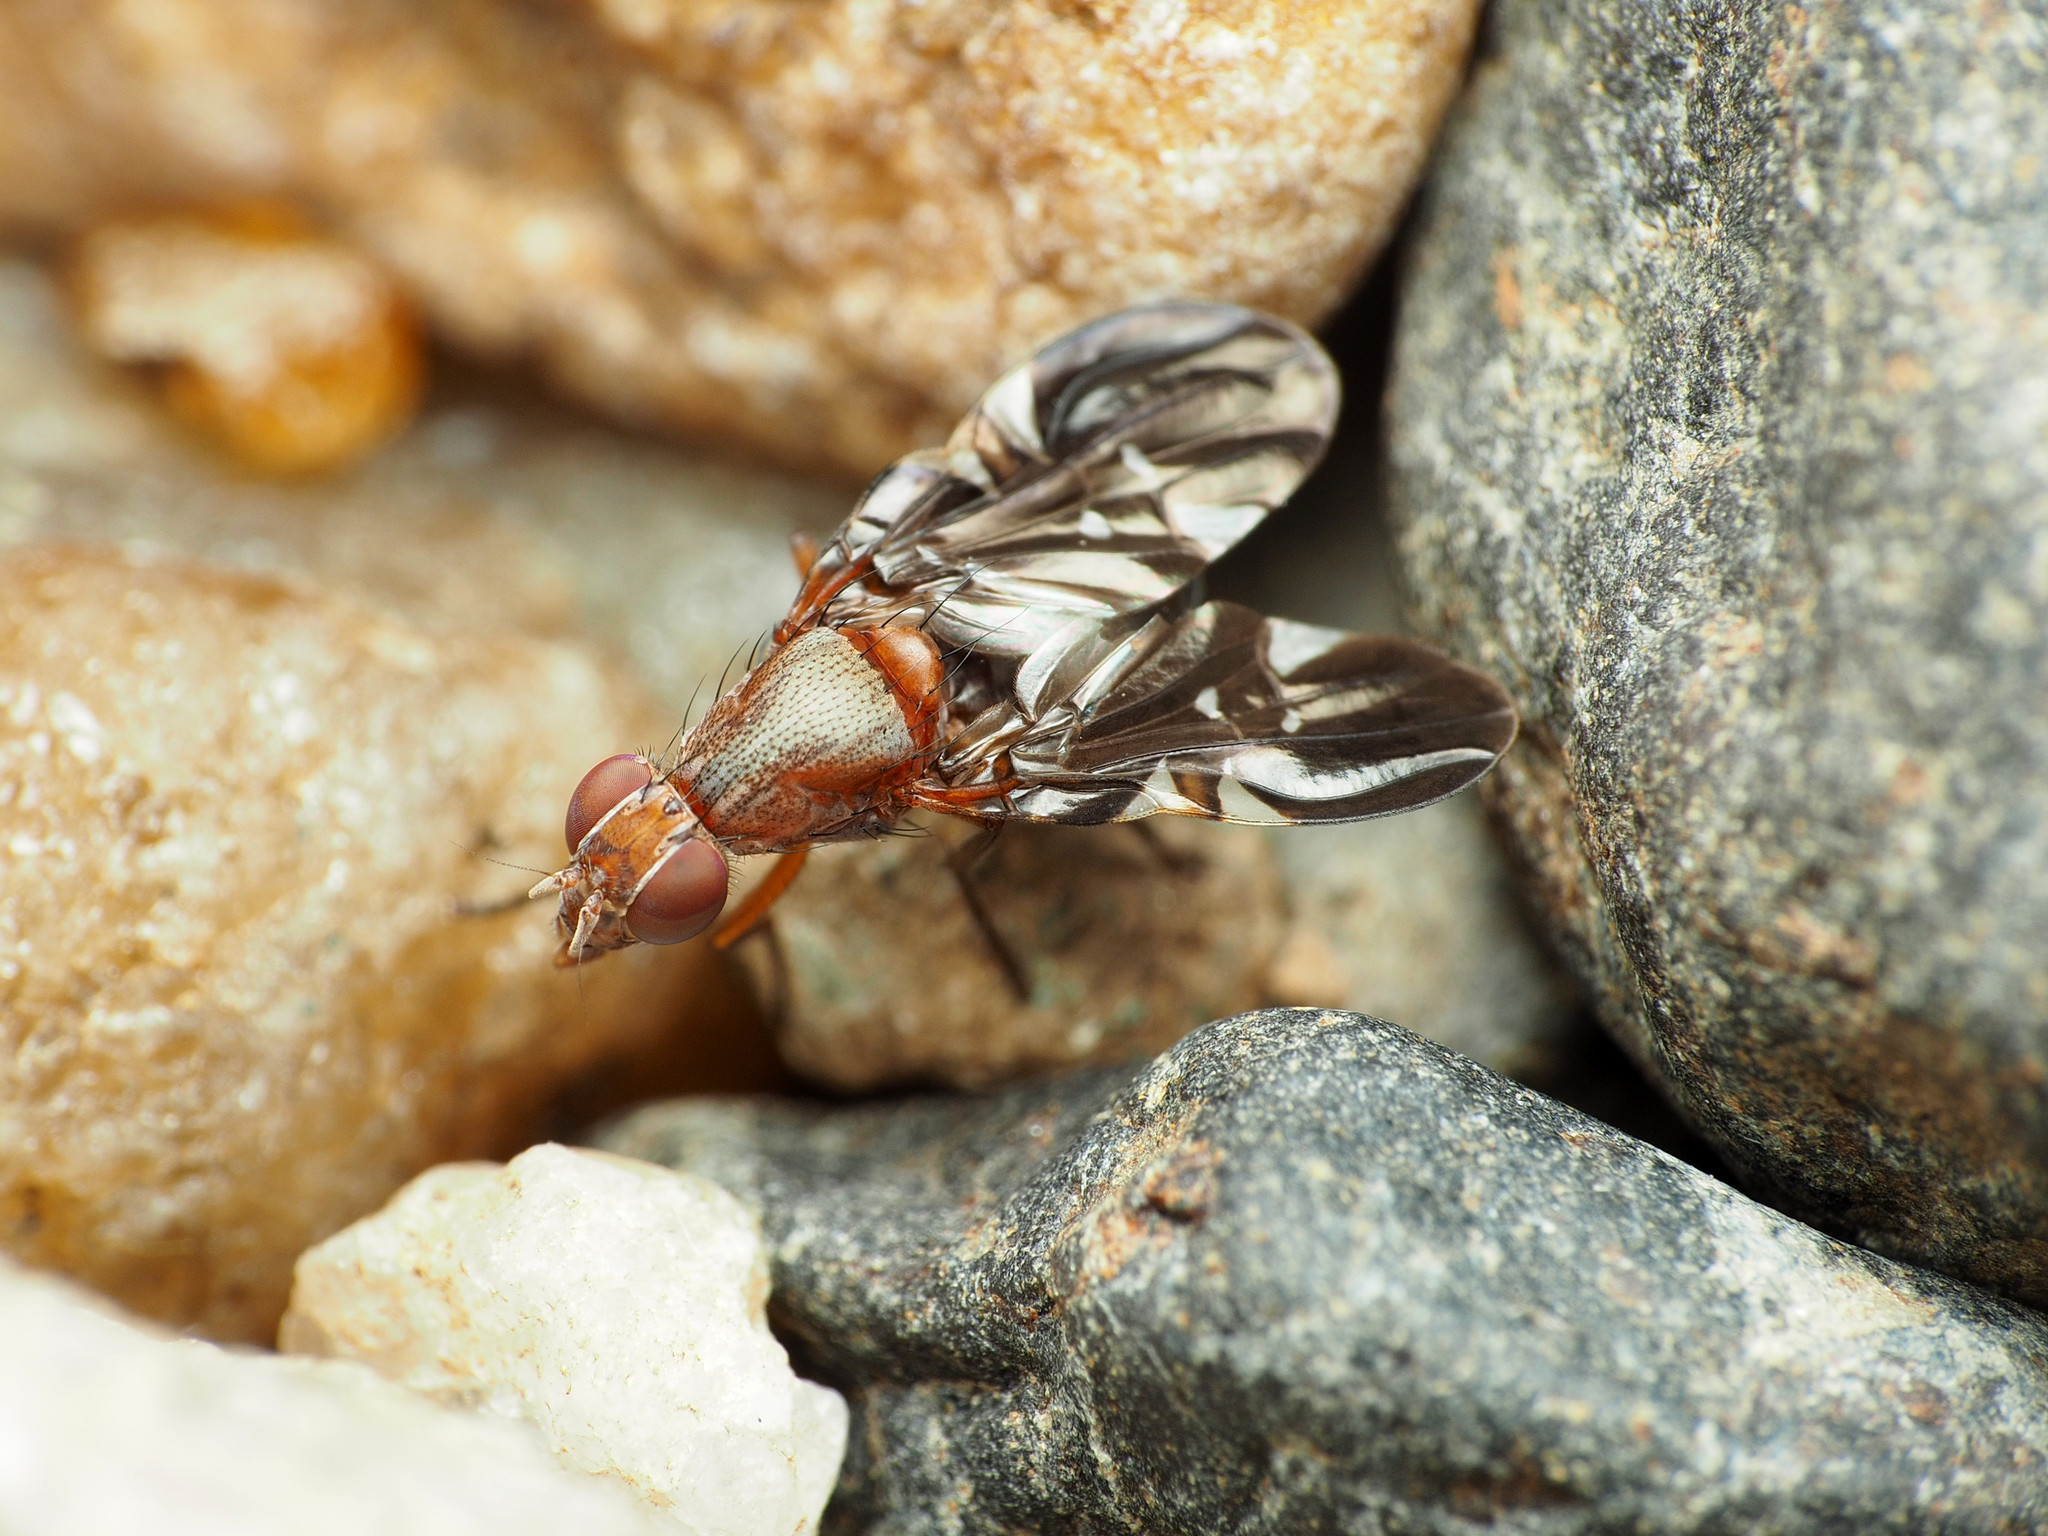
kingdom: Animalia
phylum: Arthropoda
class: Insecta
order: Diptera
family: Ulidiidae
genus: Delphinia
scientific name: Delphinia picta
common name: Common picture-winged fly
